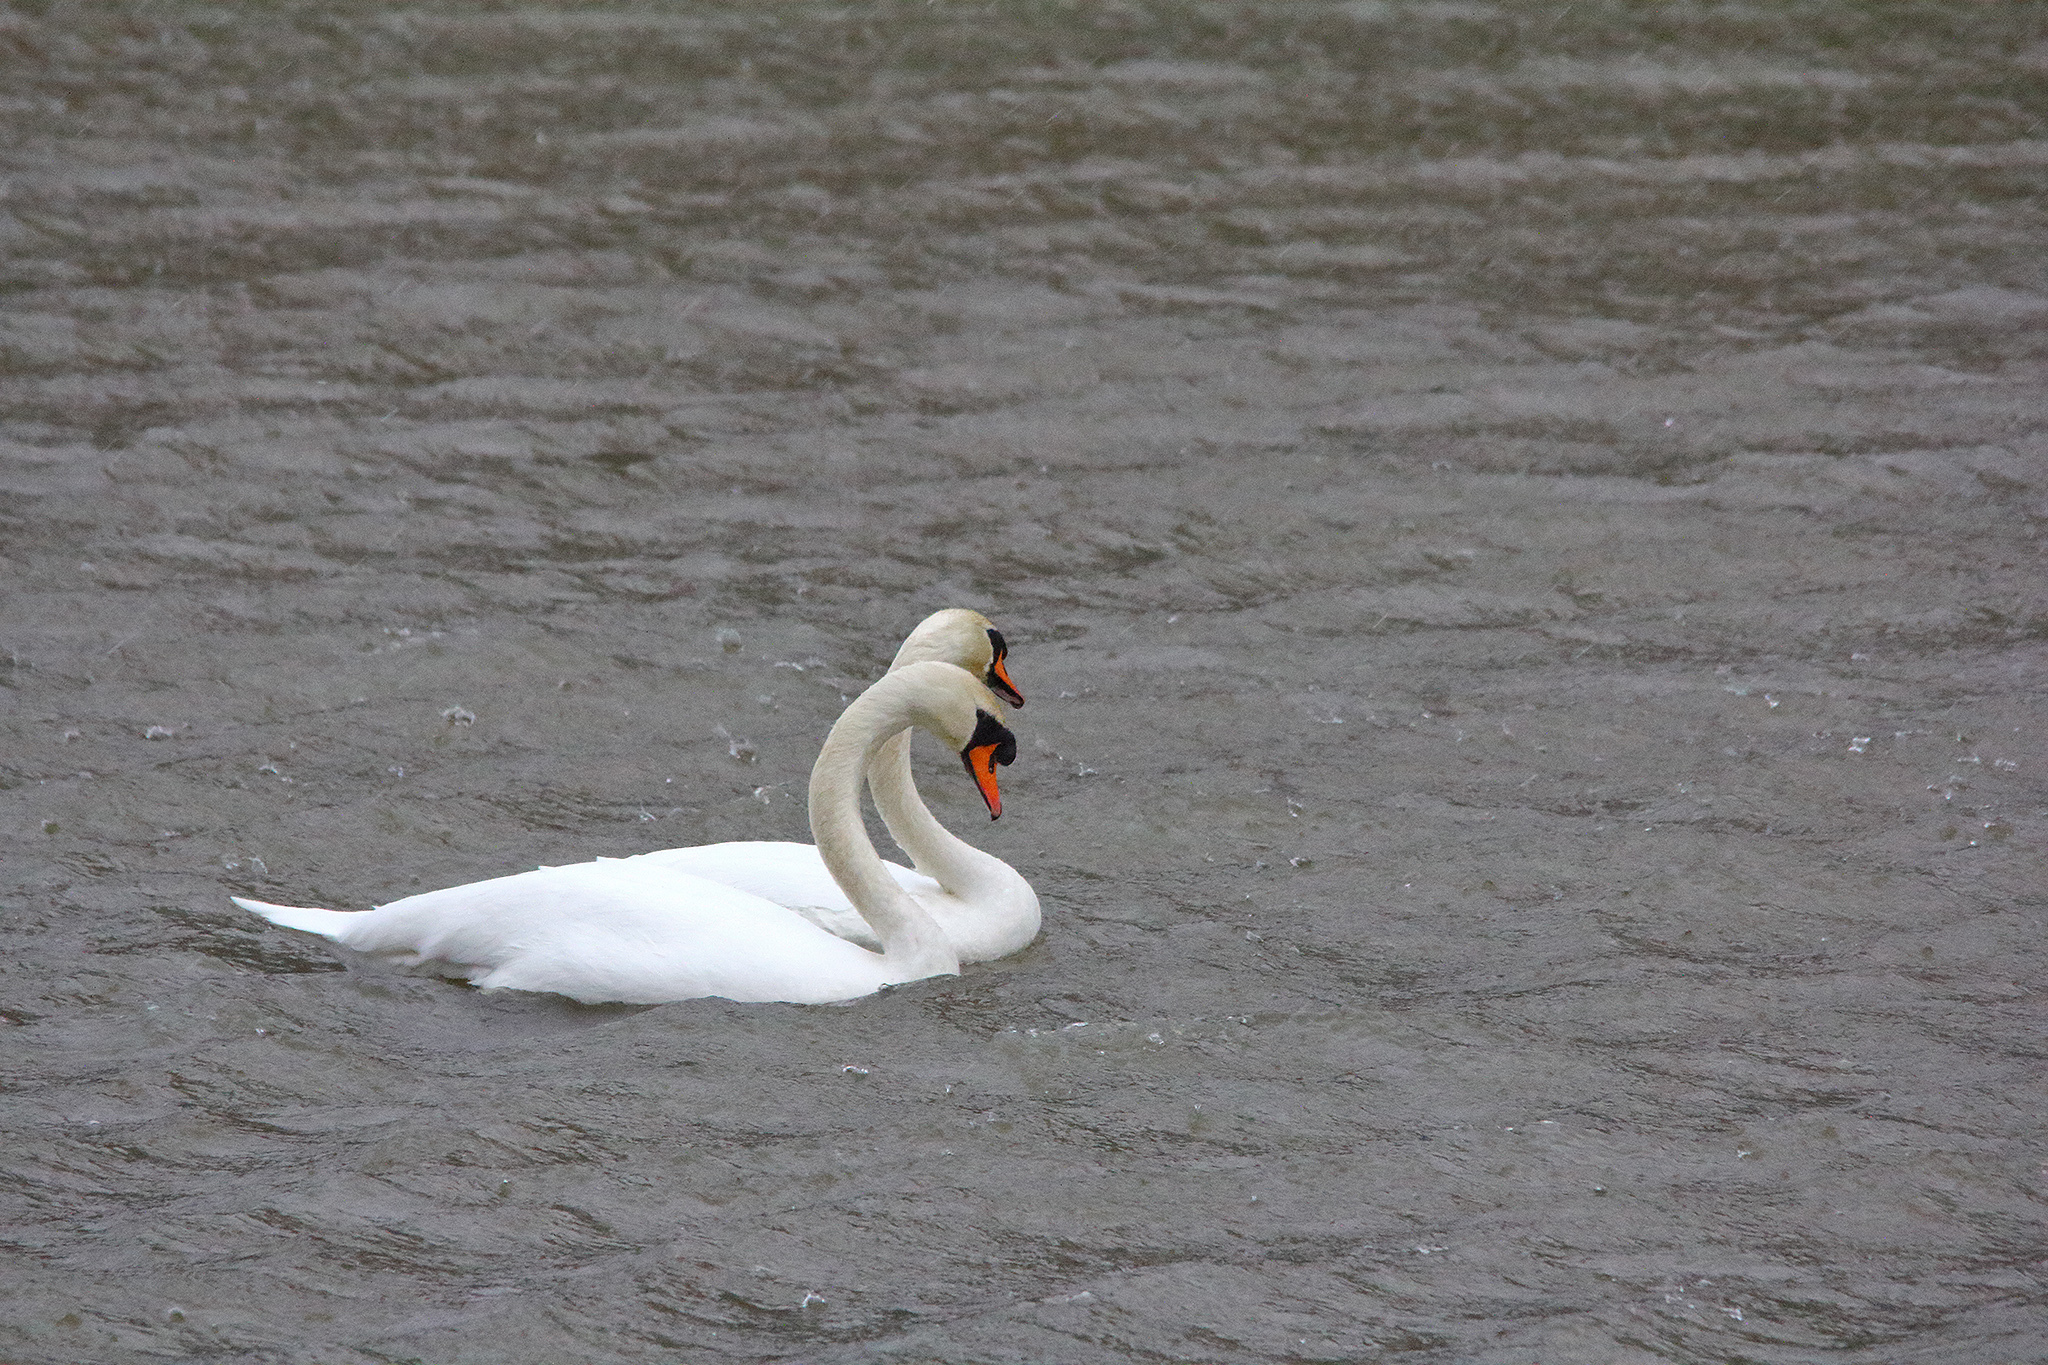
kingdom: Animalia
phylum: Chordata
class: Aves
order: Anseriformes
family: Anatidae
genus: Cygnus
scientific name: Cygnus olor
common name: Mute swan
